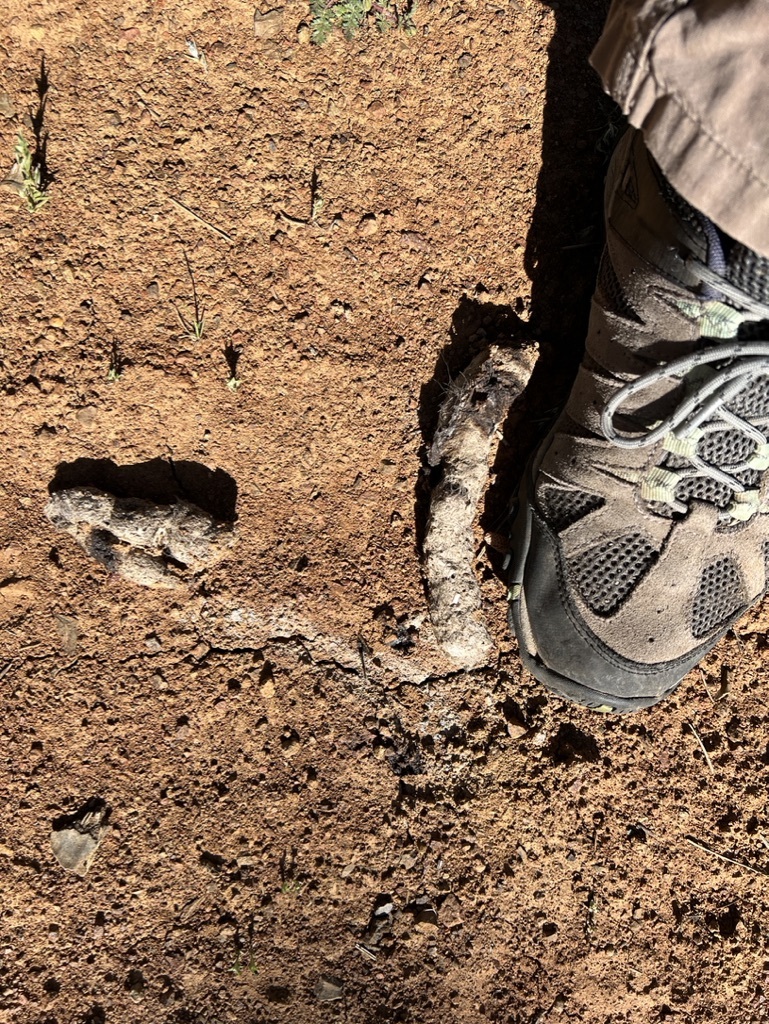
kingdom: Animalia
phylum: Chordata
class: Mammalia
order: Carnivora
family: Felidae
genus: Lynx
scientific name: Lynx rufus
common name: Bobcat
